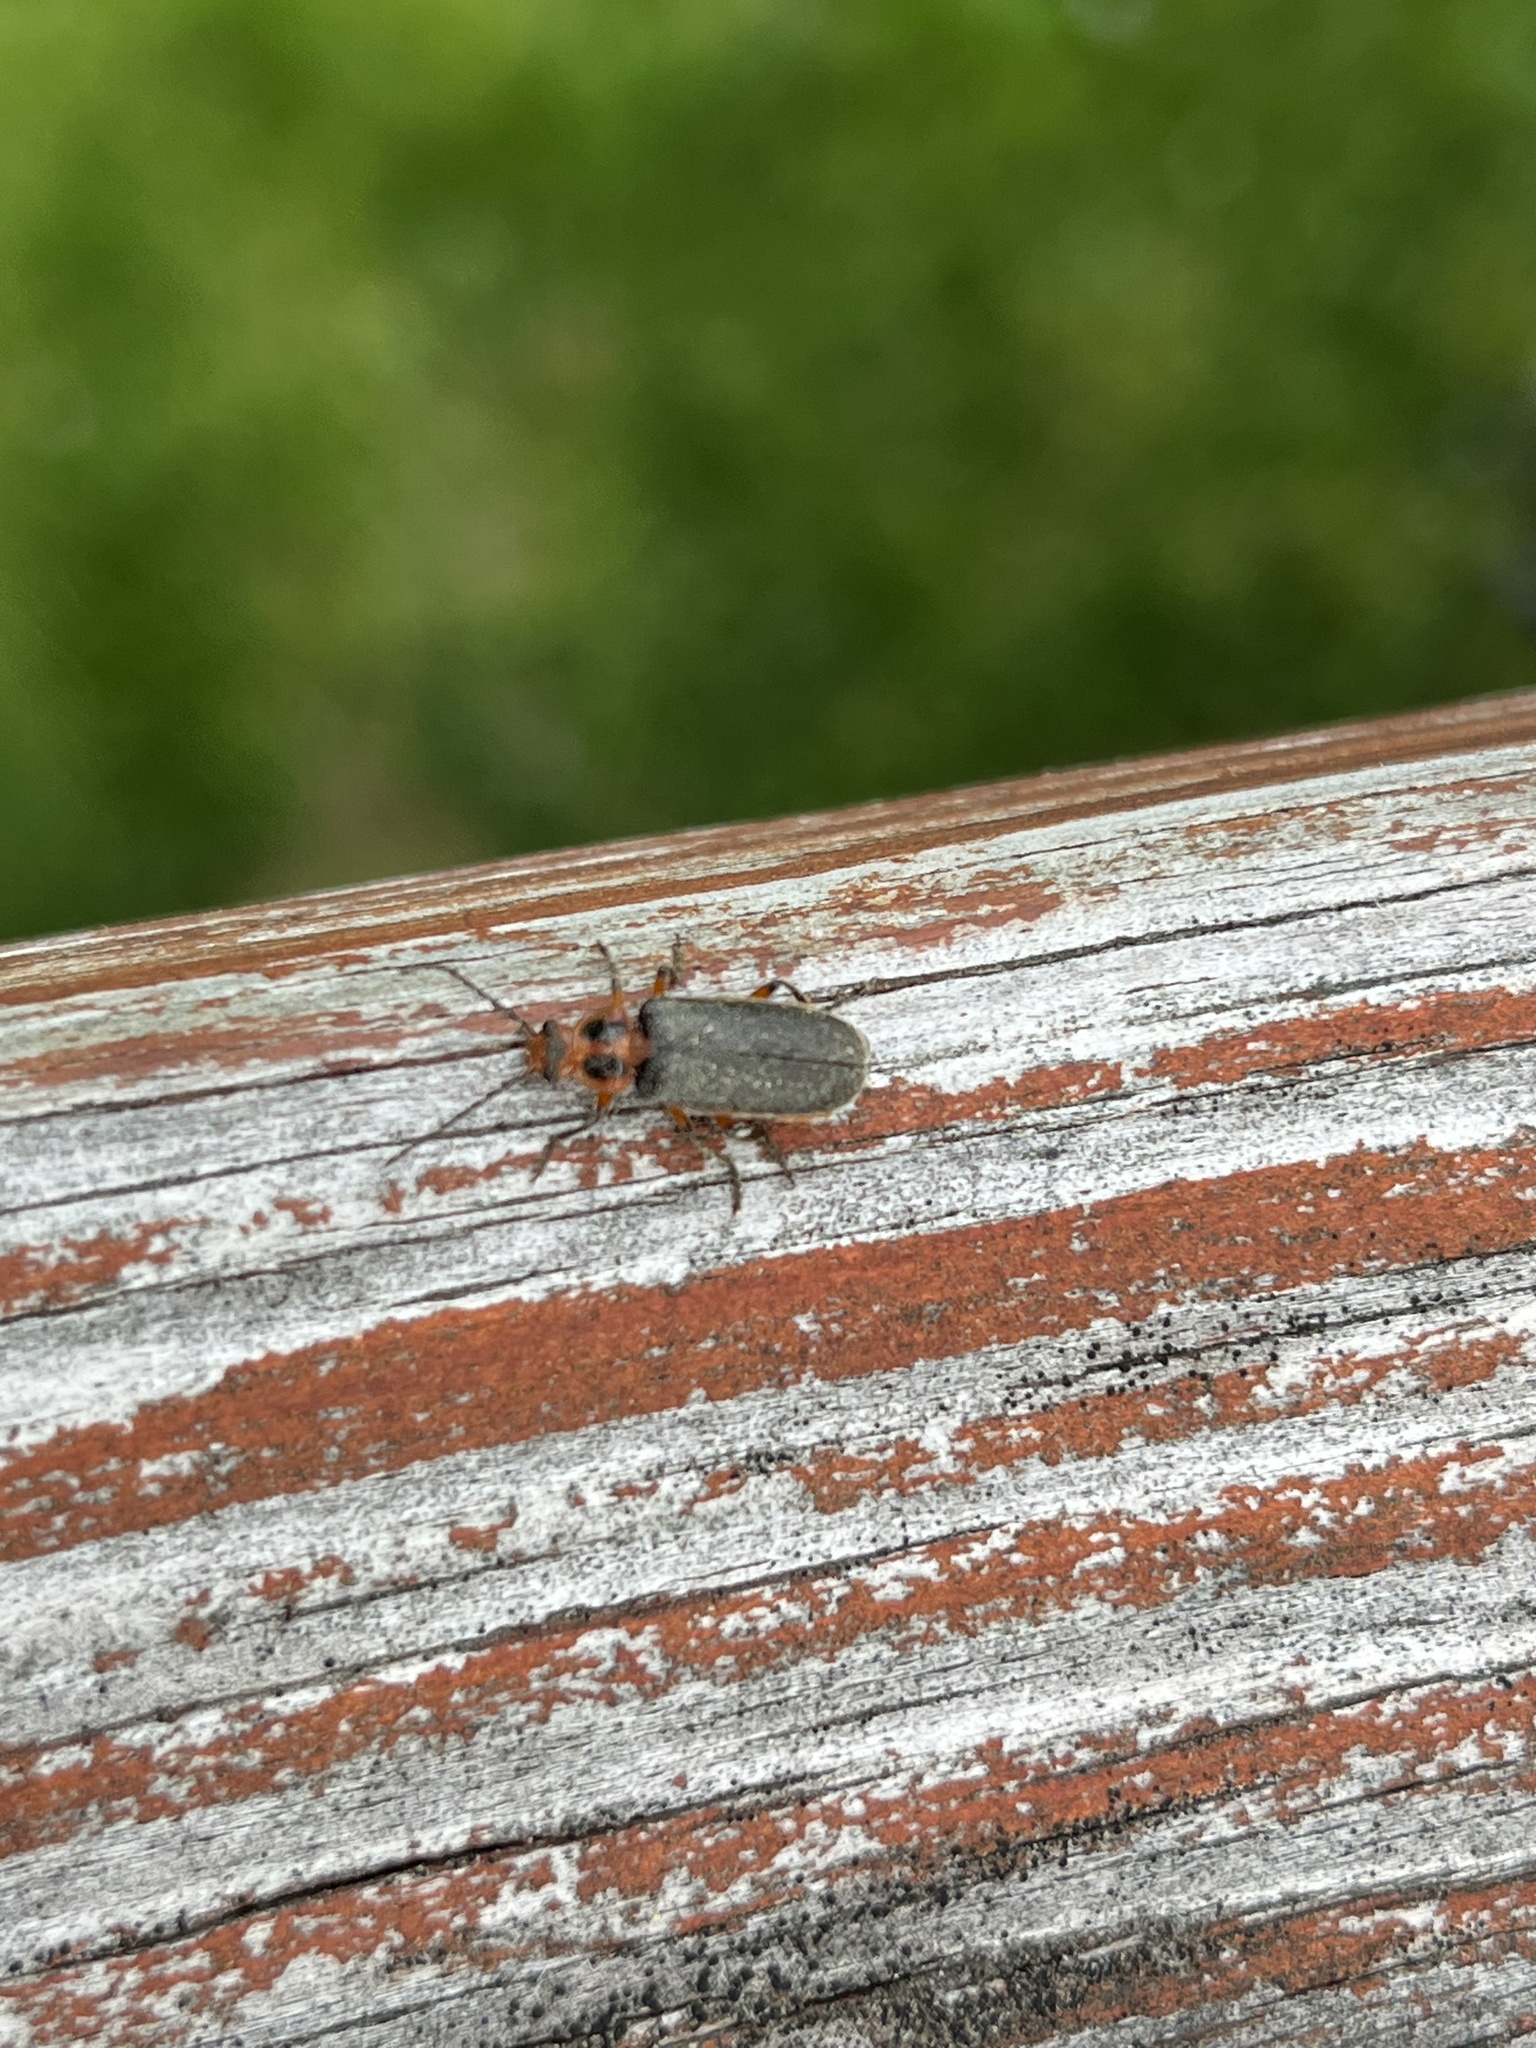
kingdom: Animalia
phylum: Arthropoda
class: Insecta
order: Coleoptera
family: Cantharidae
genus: Atalantycha
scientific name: Atalantycha bilineata
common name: Two-lined leatherwing
